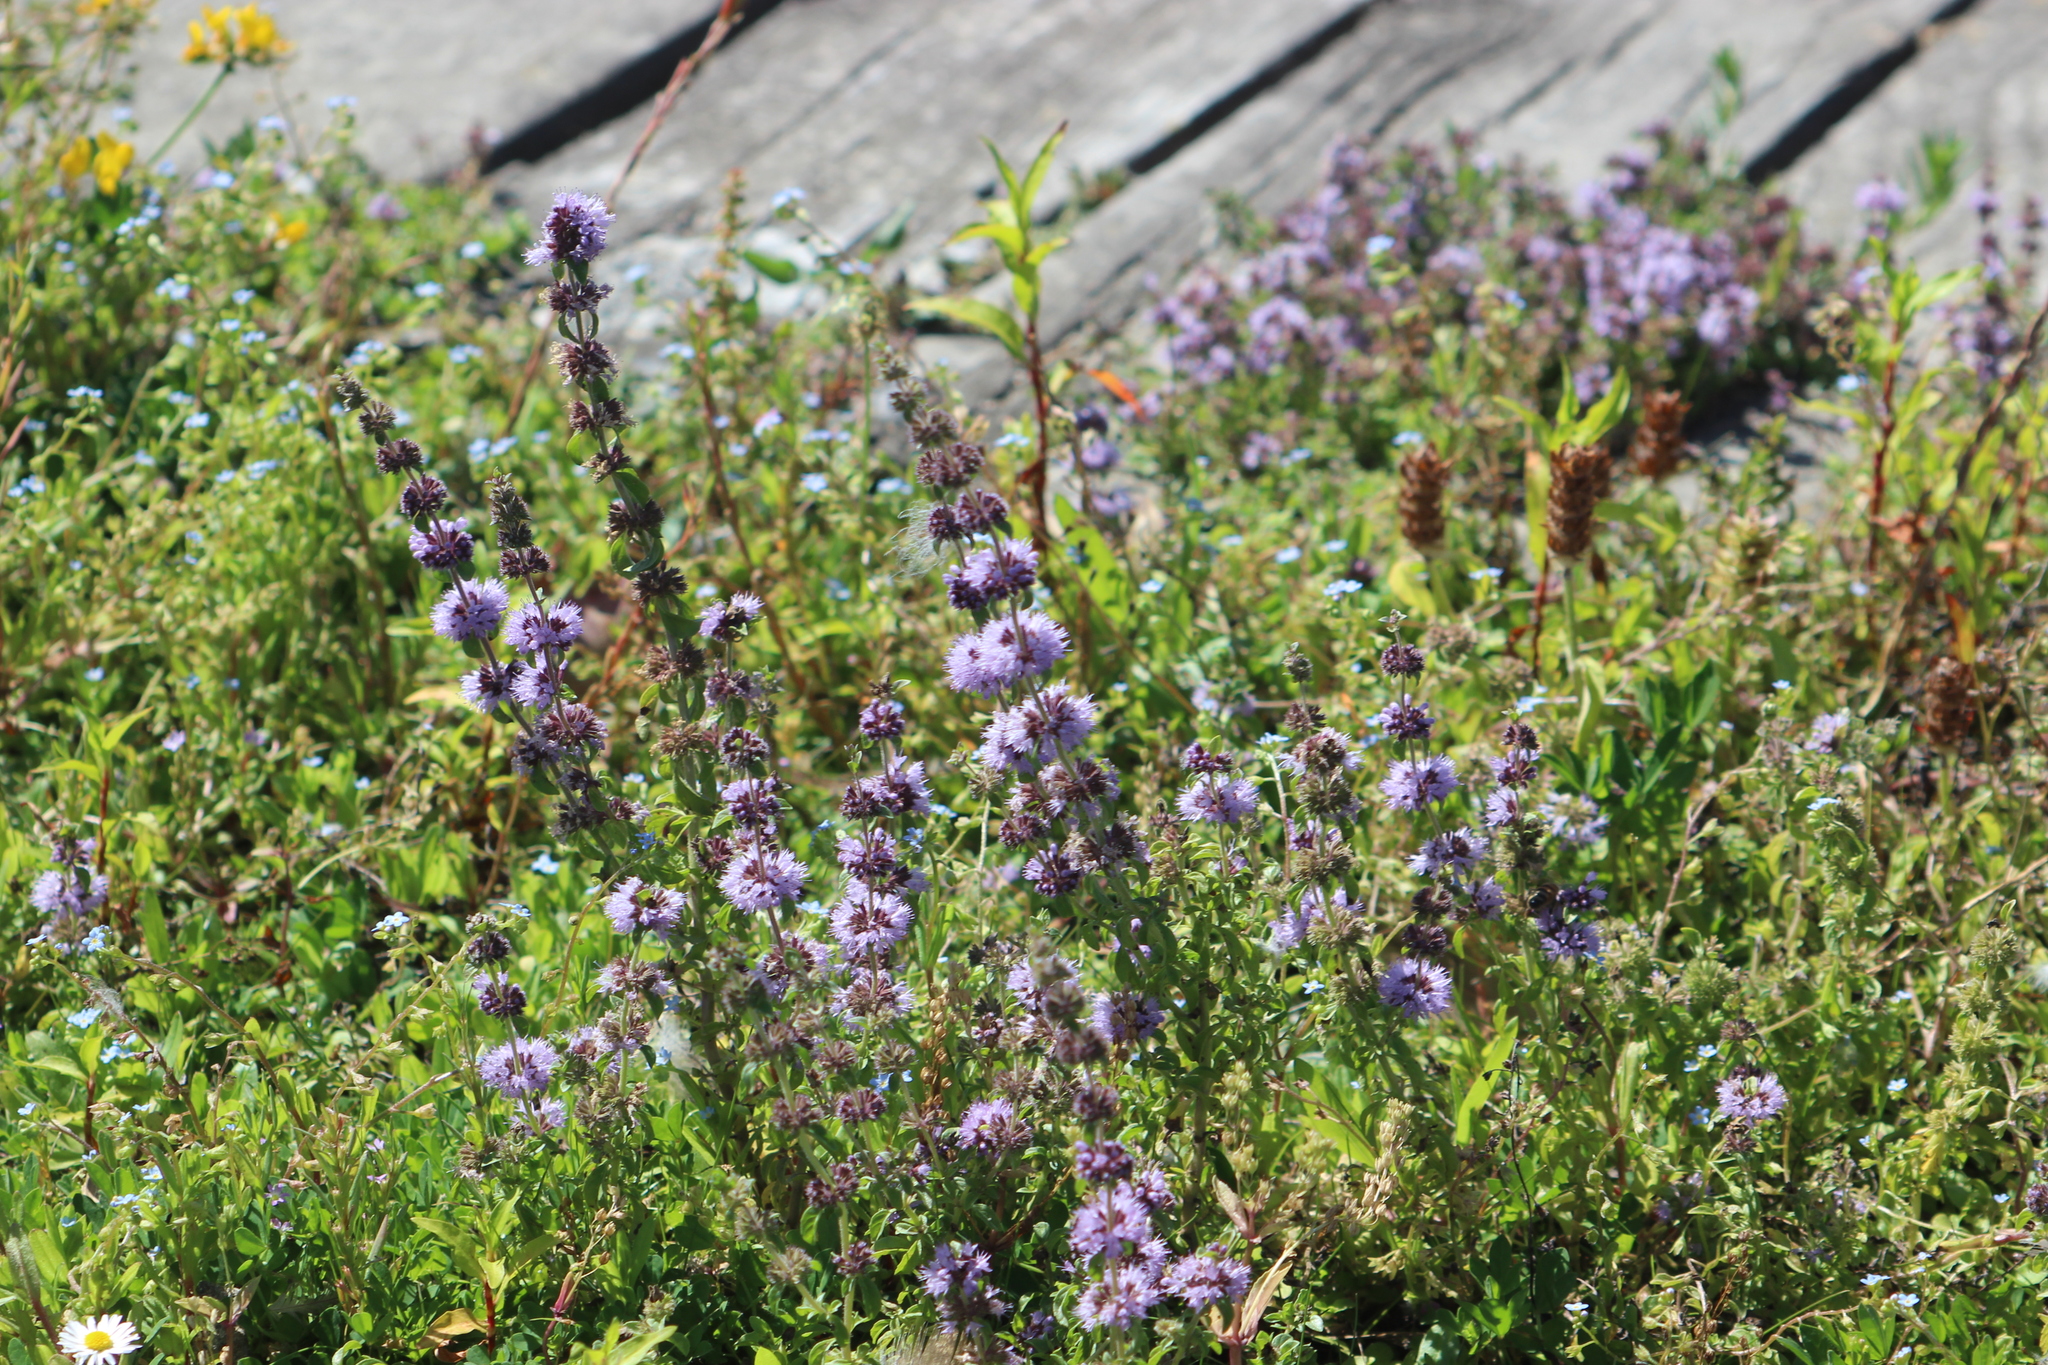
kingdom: Plantae
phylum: Tracheophyta
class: Magnoliopsida
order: Lamiales
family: Lamiaceae
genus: Mentha
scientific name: Mentha pulegium
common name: Pennyroyal
